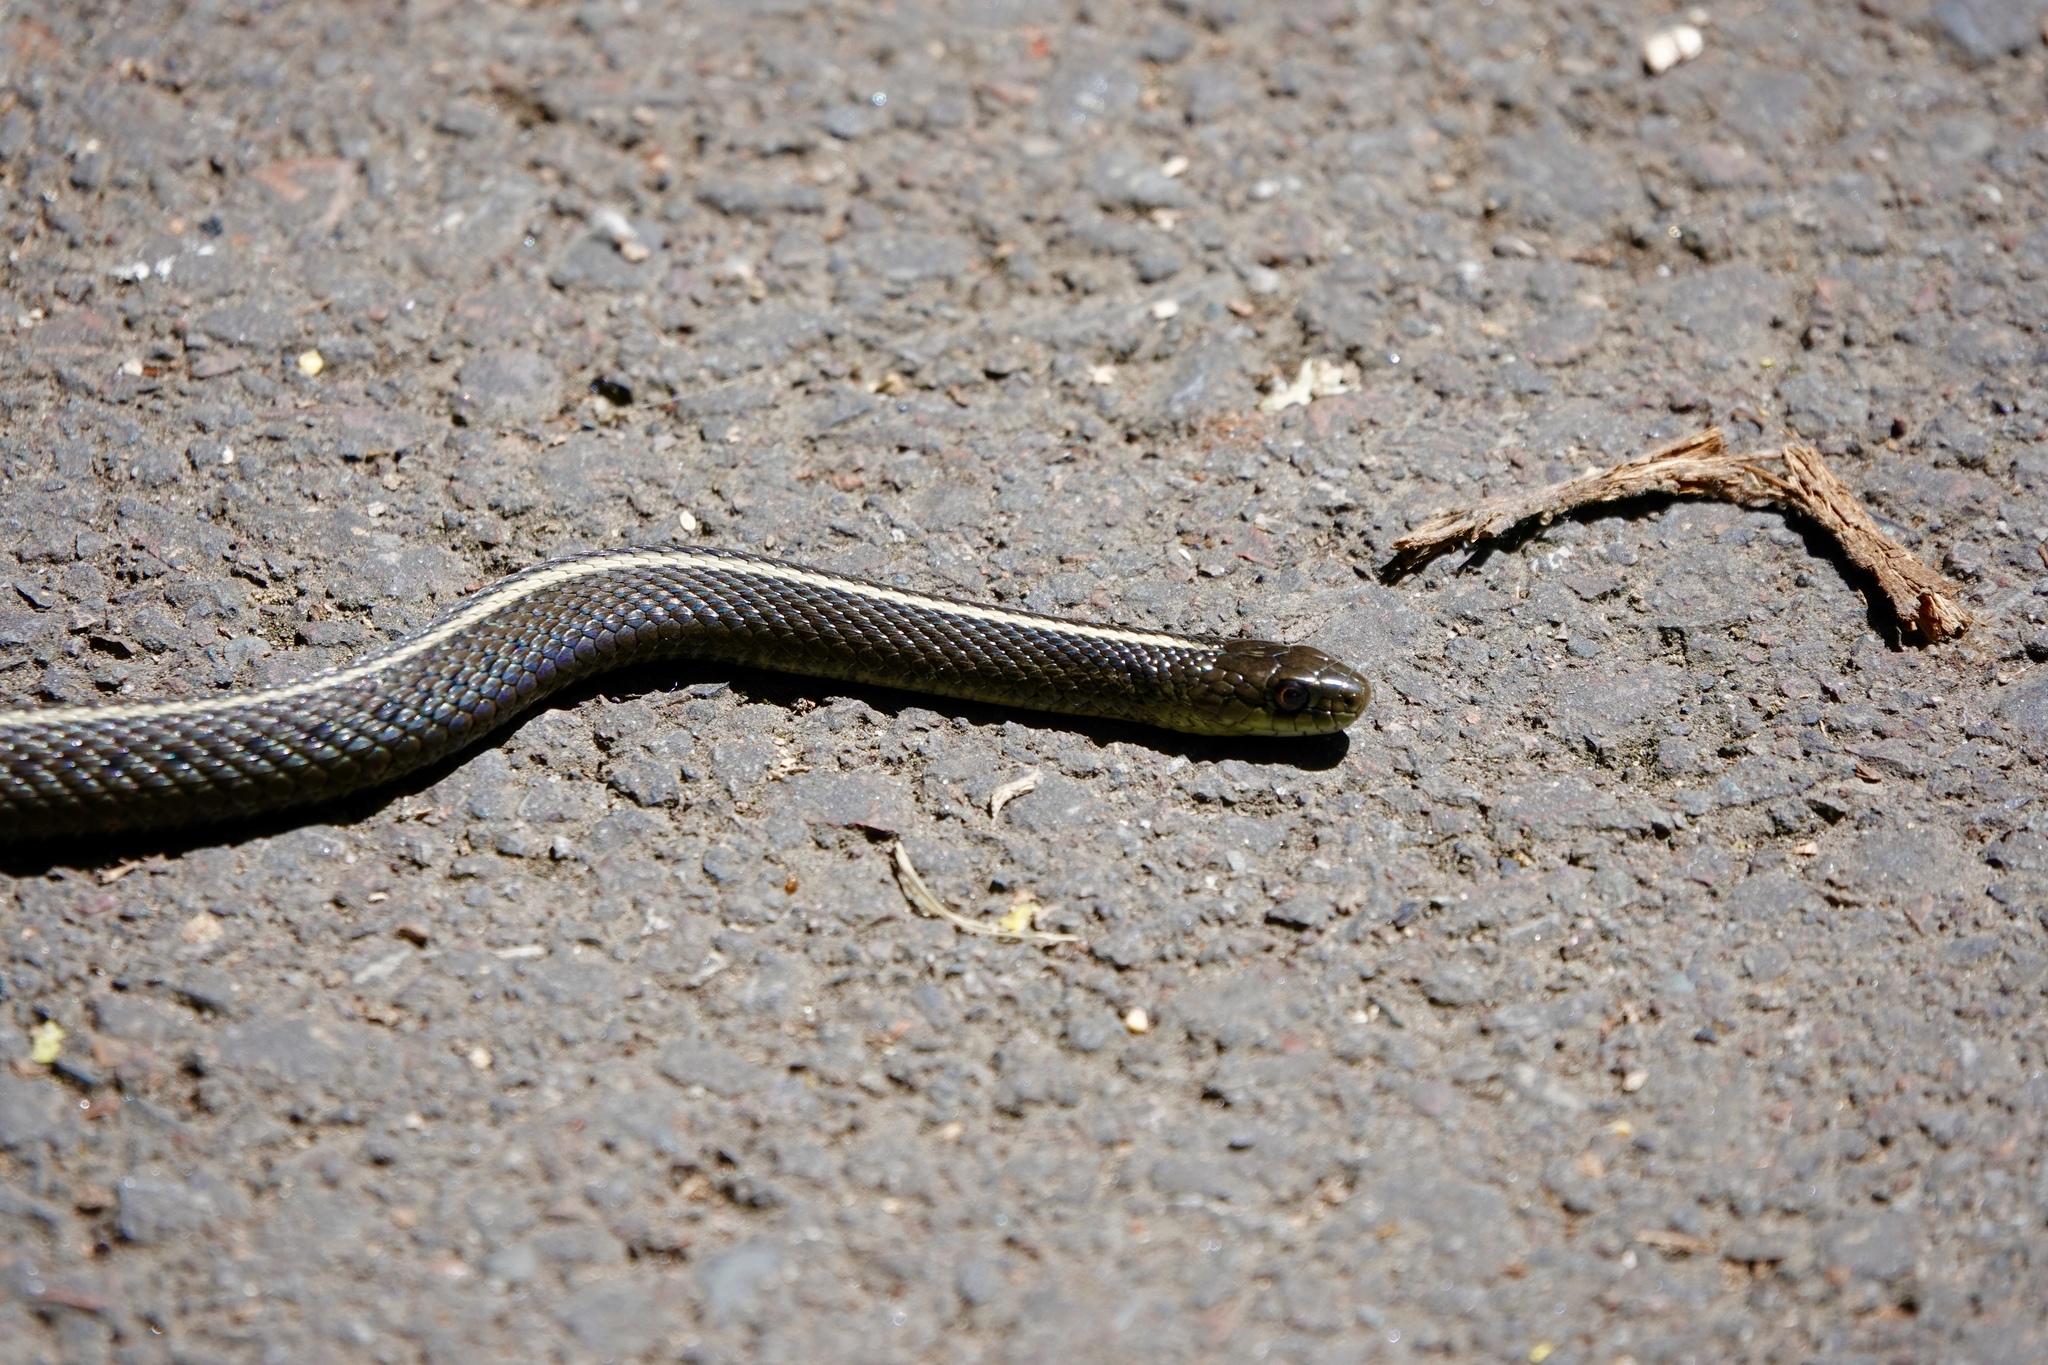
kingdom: Animalia
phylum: Chordata
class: Squamata
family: Colubridae
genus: Thamnophis
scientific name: Thamnophis ordinoides
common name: Northwestern garter snake
